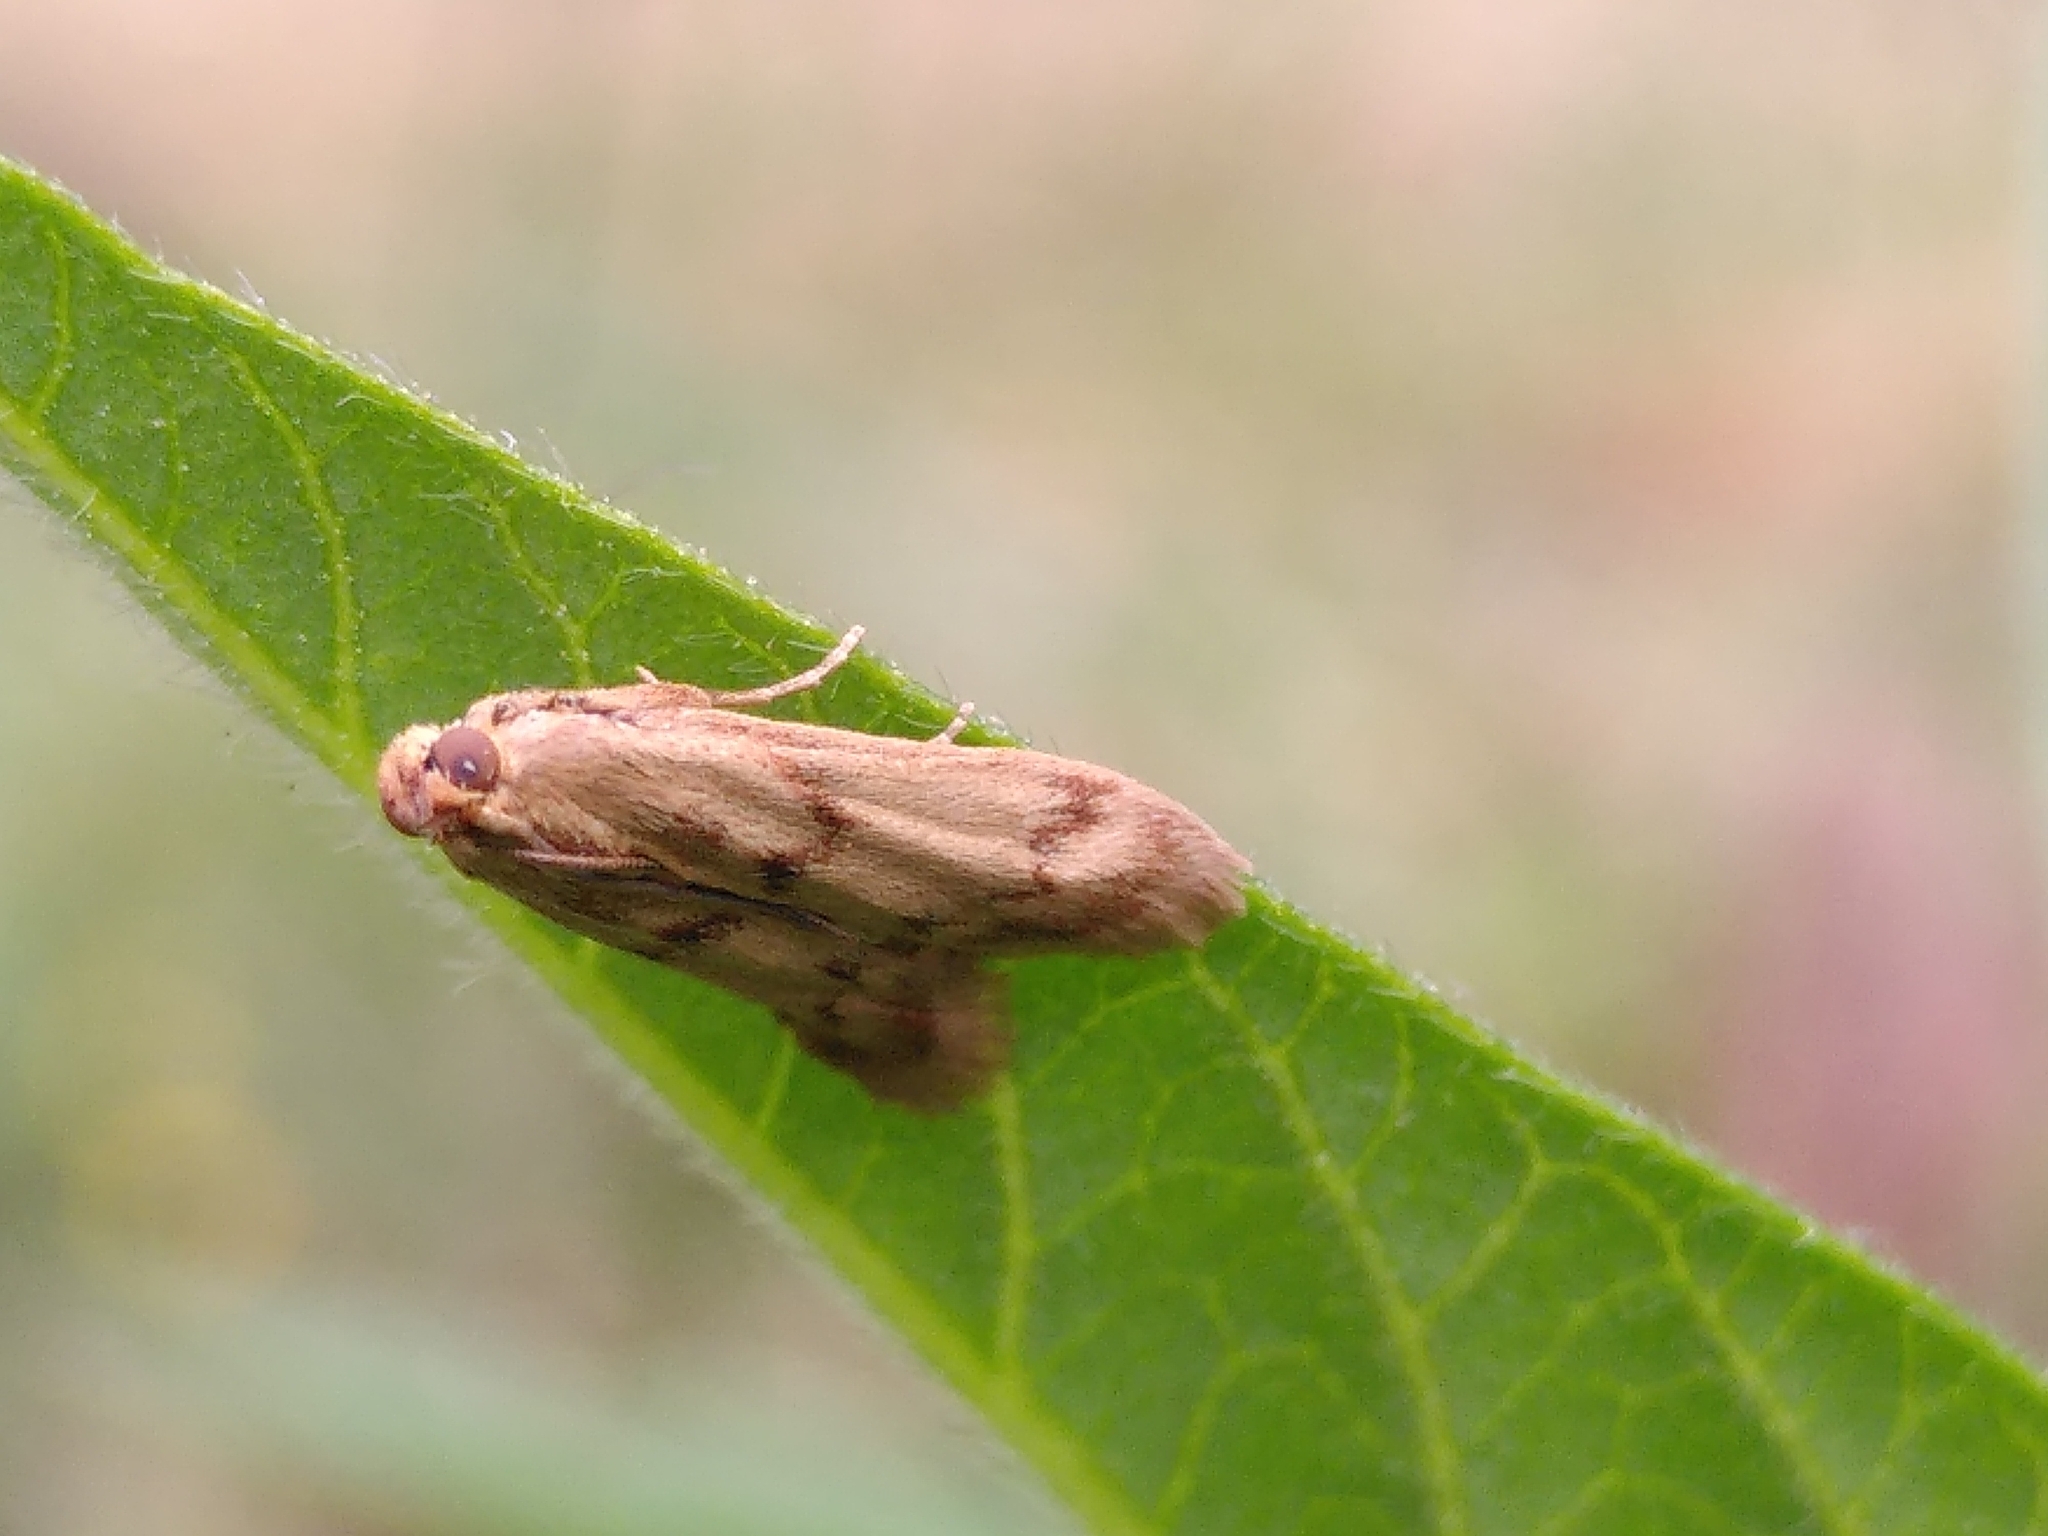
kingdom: Animalia
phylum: Arthropoda
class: Insecta
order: Lepidoptera
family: Pyralidae
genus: Homoeosoma
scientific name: Homoeosoma sinuella
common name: Twin-barred knot-horn
